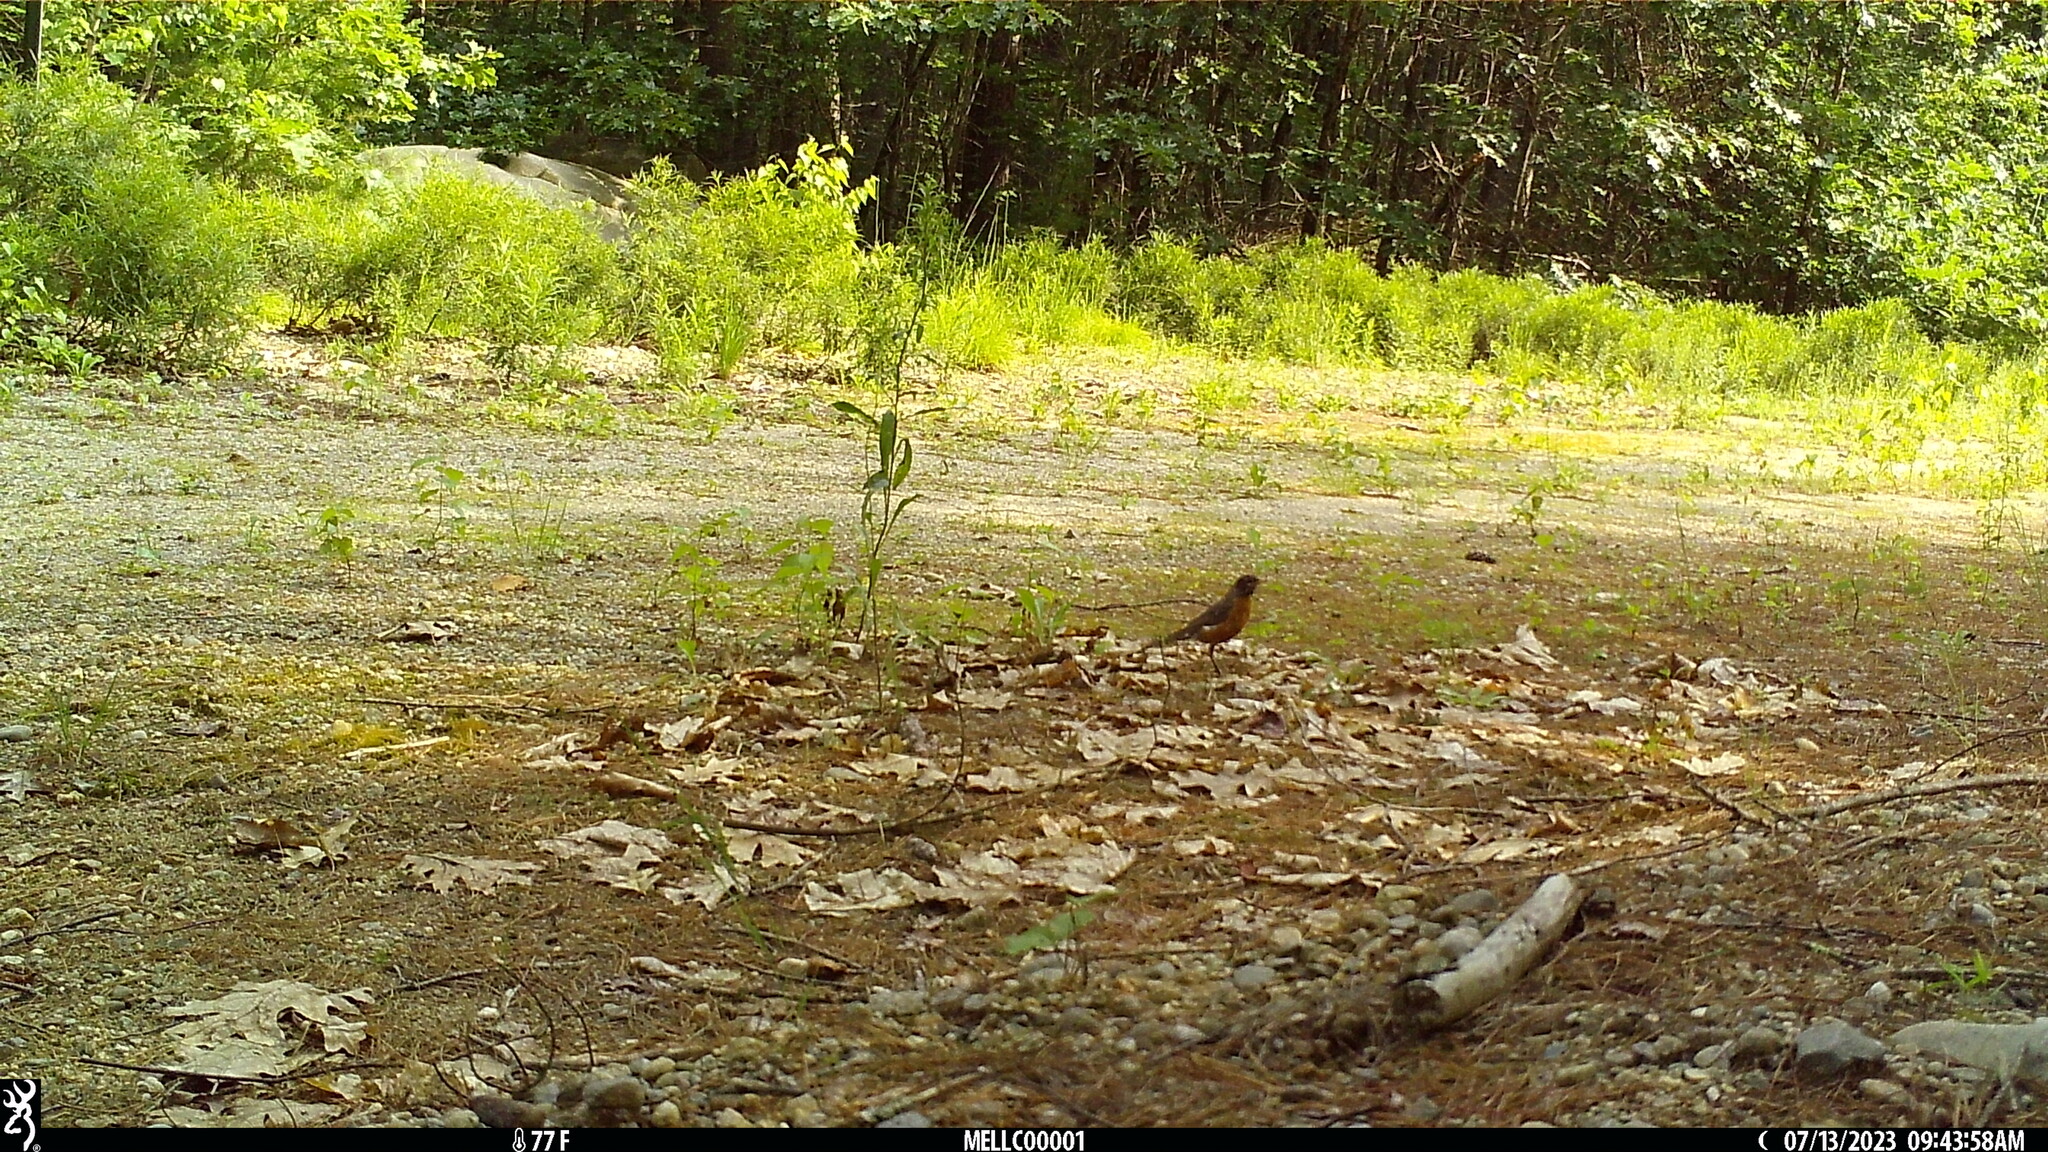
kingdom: Animalia
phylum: Chordata
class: Aves
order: Passeriformes
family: Turdidae
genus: Turdus
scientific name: Turdus migratorius
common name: American robin
